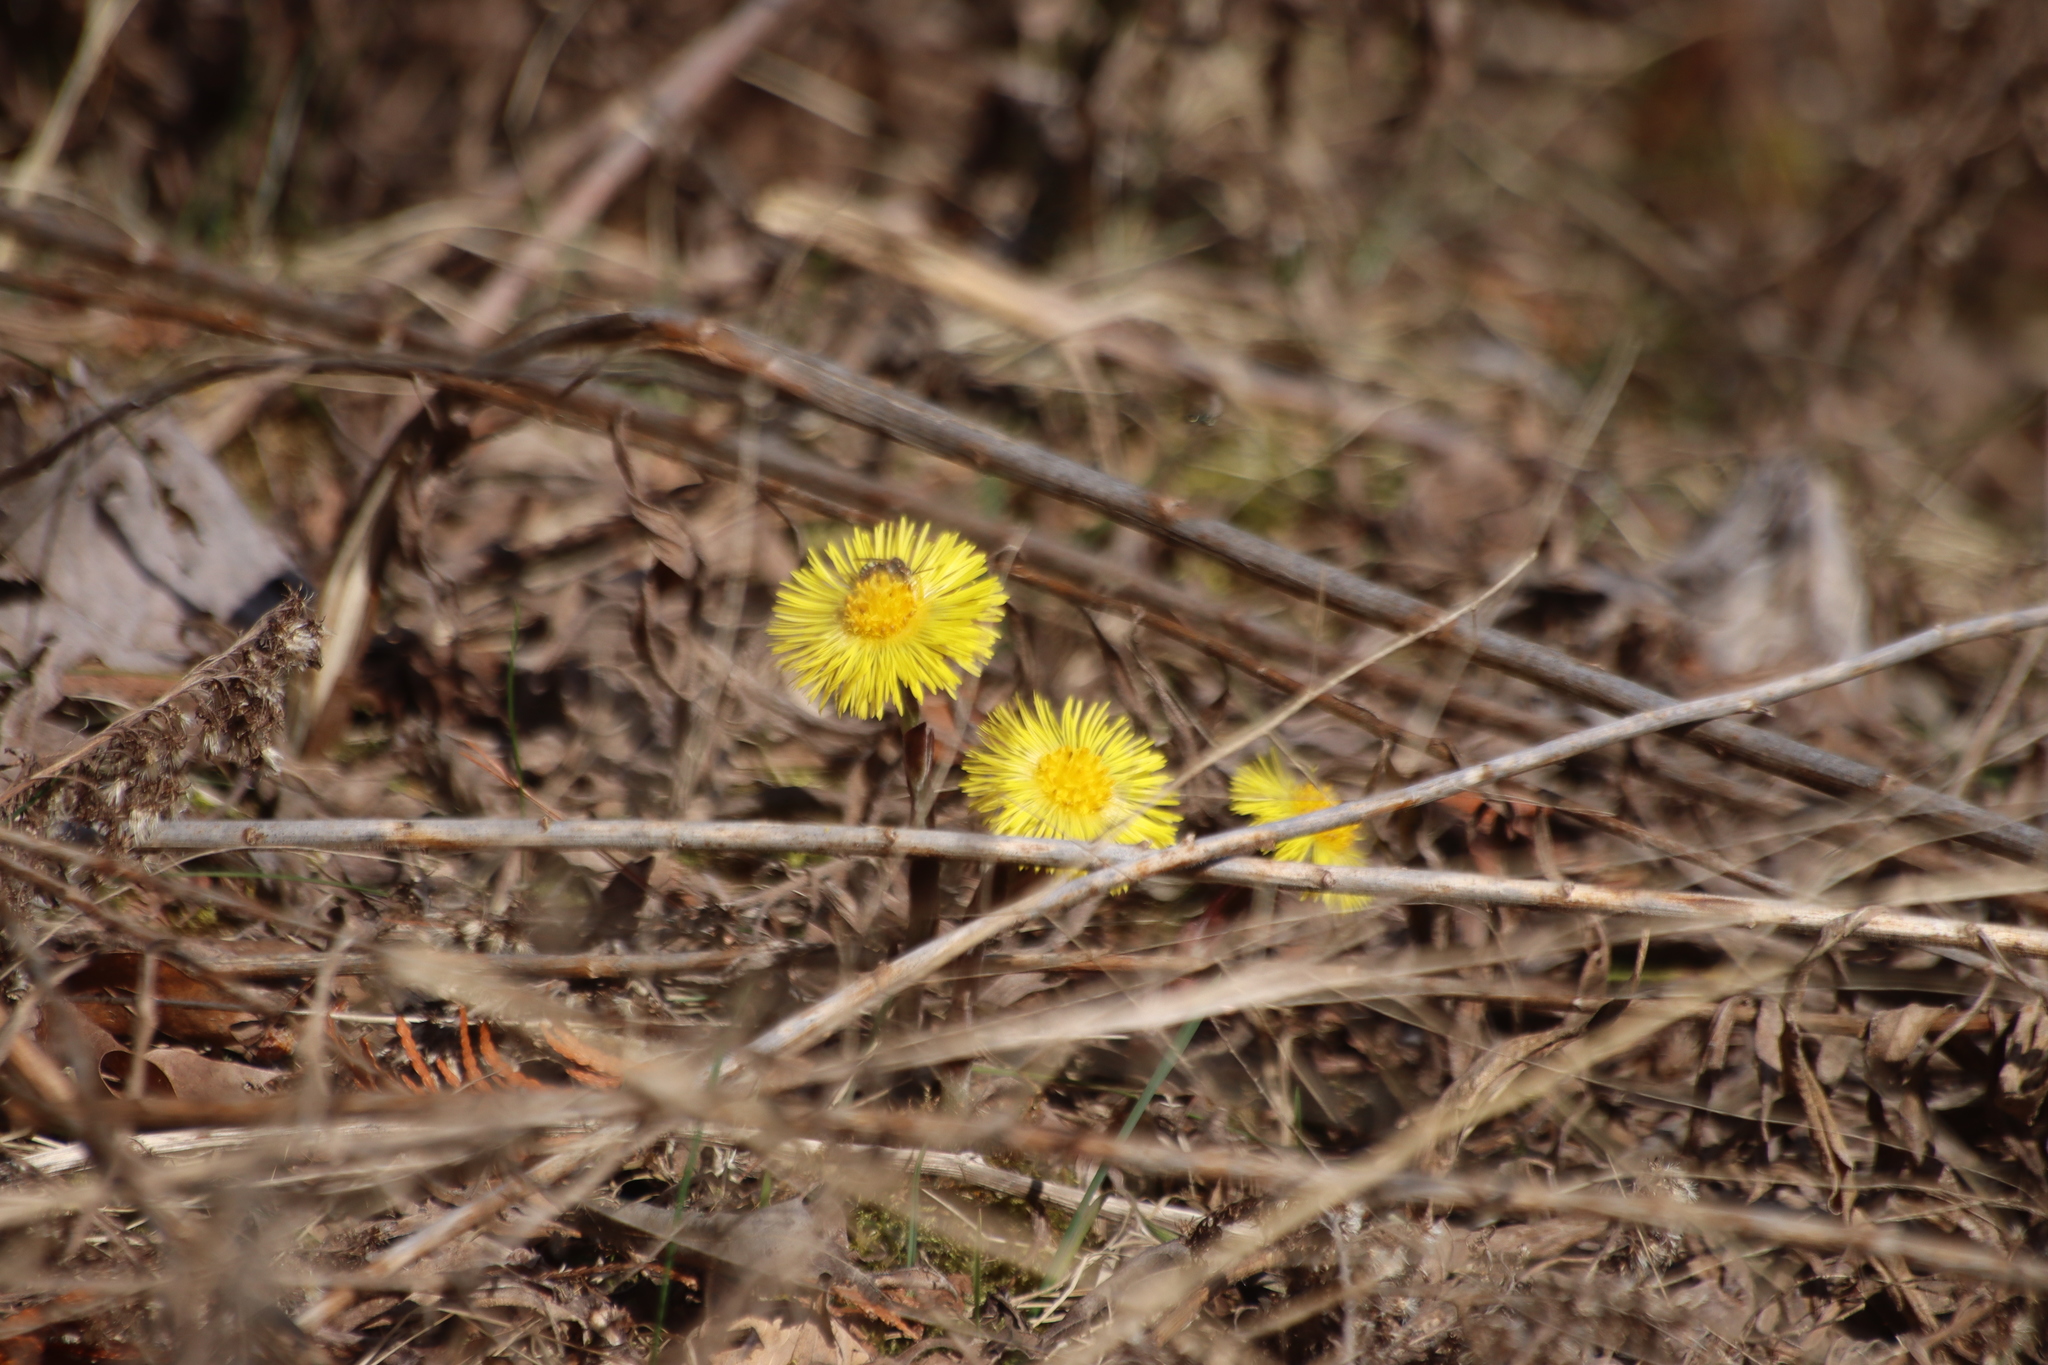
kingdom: Plantae
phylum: Tracheophyta
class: Magnoliopsida
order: Asterales
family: Asteraceae
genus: Tussilago
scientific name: Tussilago farfara
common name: Coltsfoot
